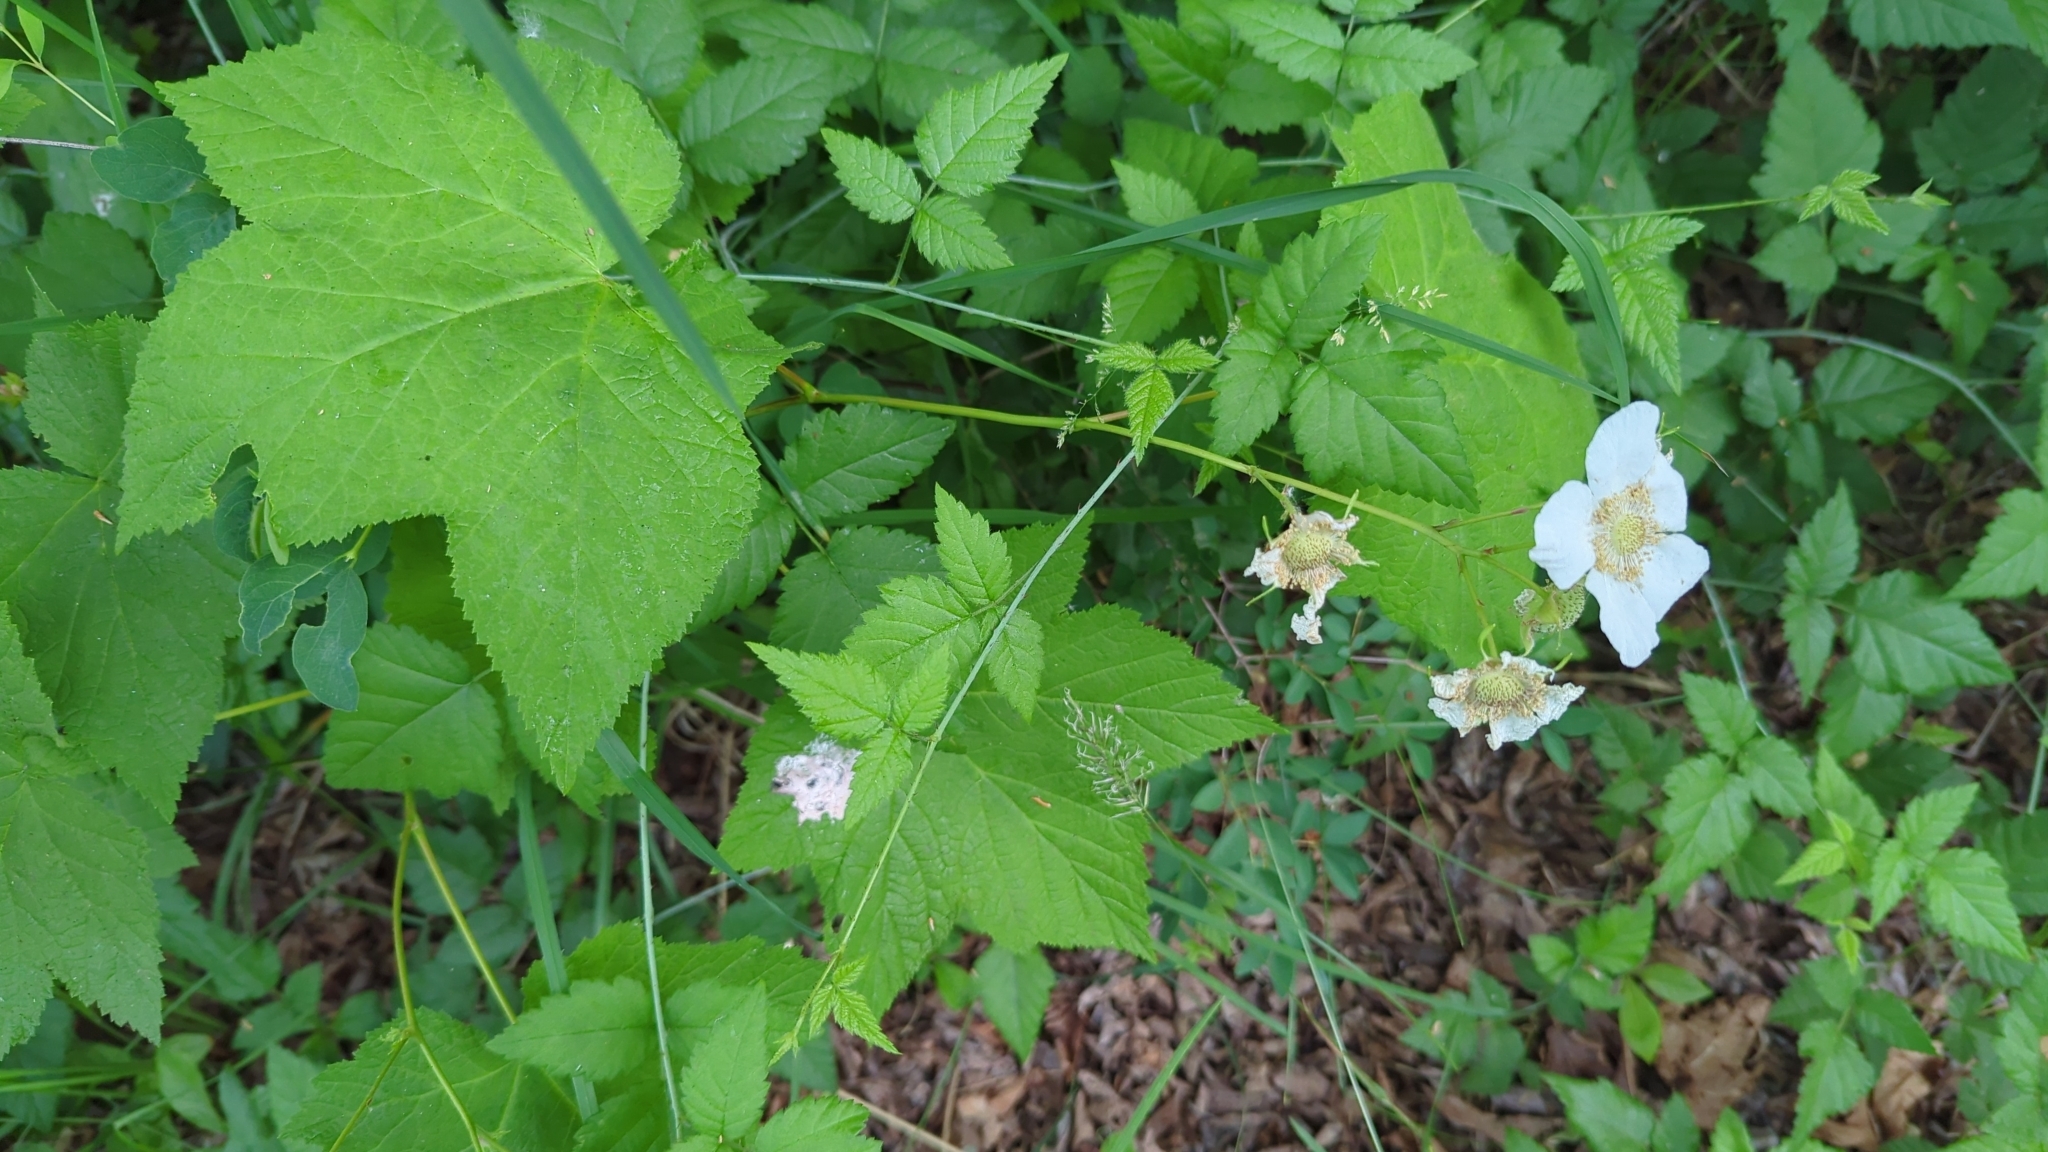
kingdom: Plantae
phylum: Tracheophyta
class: Magnoliopsida
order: Rosales
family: Rosaceae
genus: Rubus
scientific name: Rubus parviflorus
